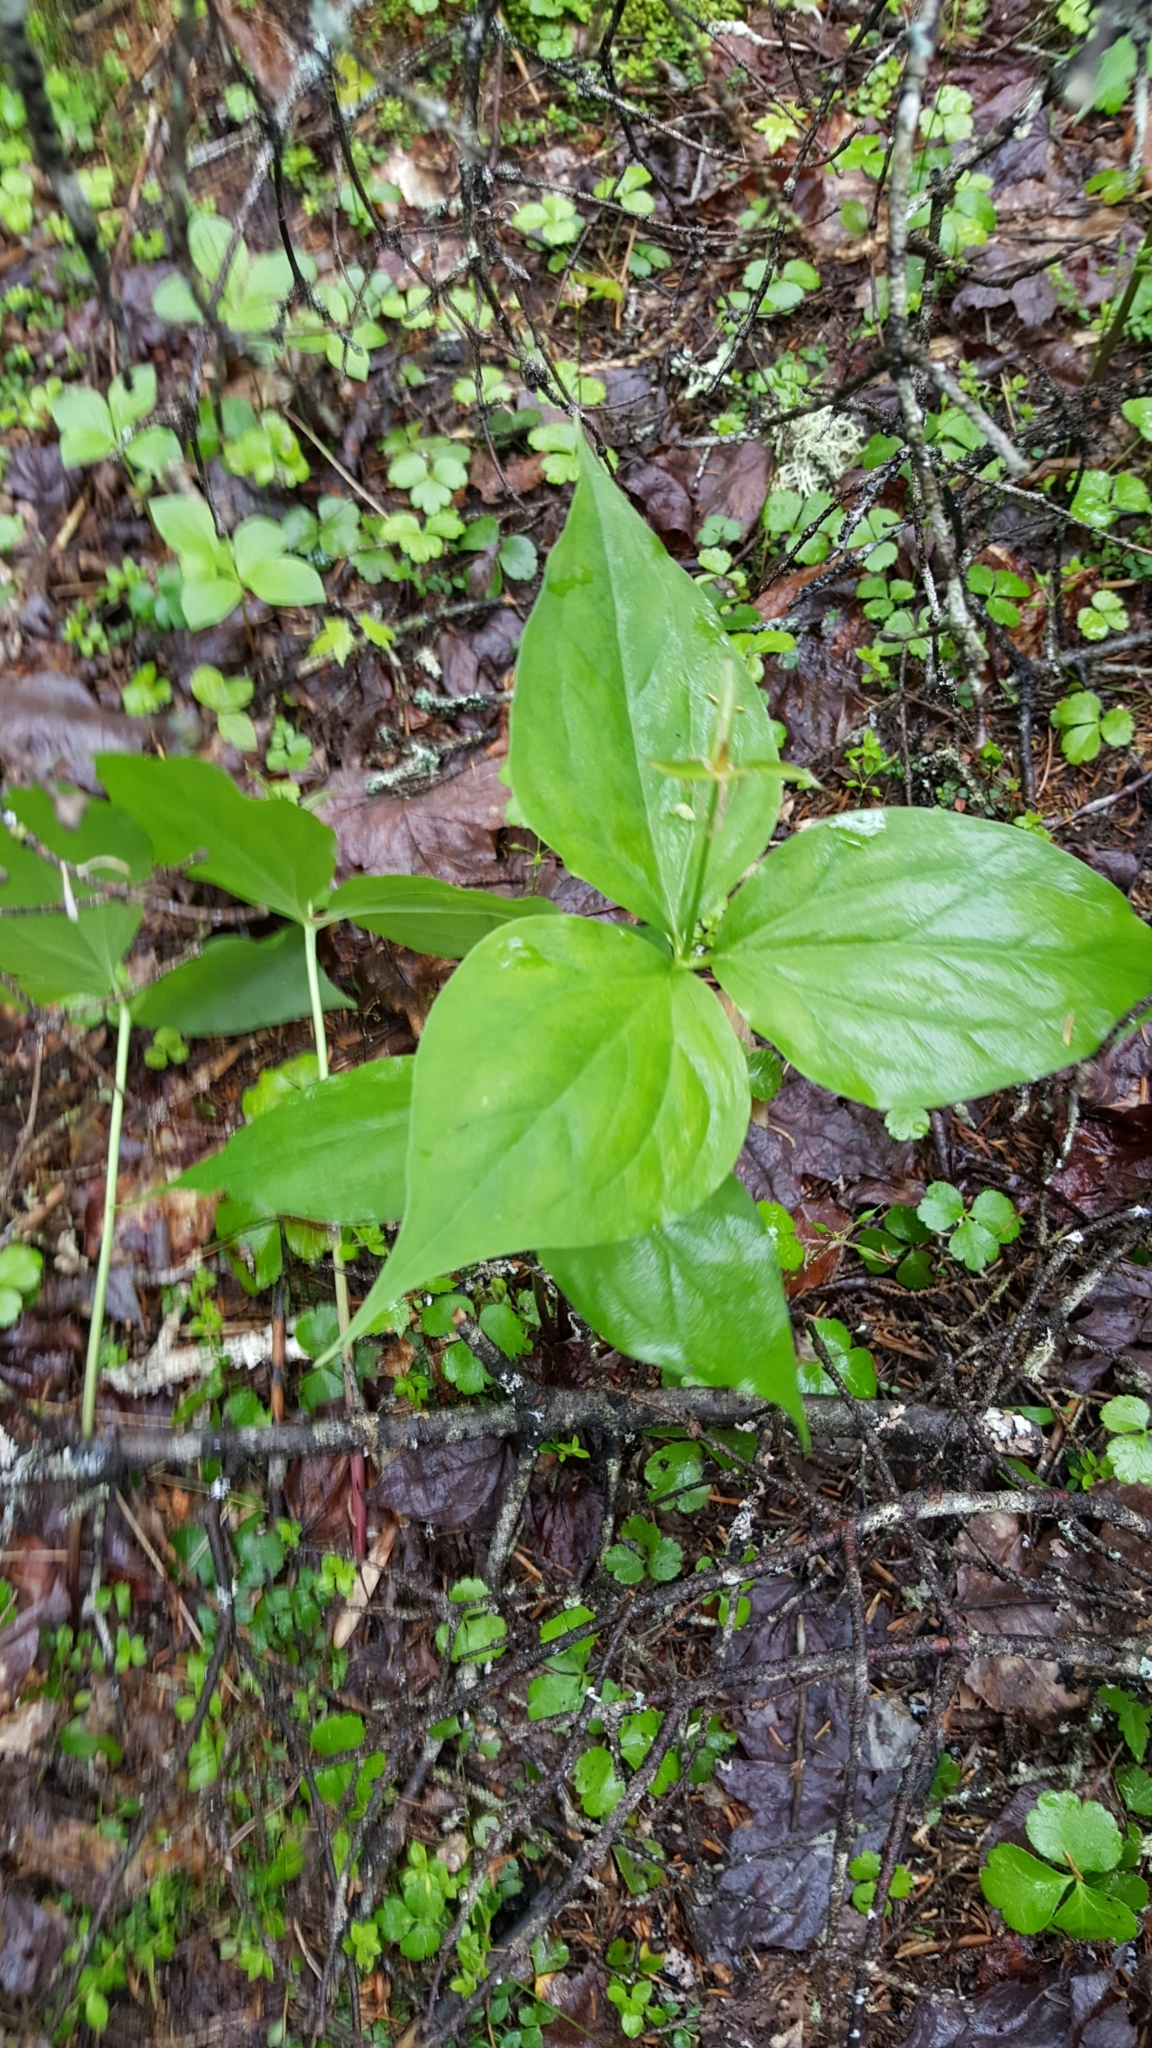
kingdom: Plantae
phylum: Tracheophyta
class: Liliopsida
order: Liliales
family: Melanthiaceae
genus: Trillium
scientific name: Trillium undulatum
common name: Paint trillium
